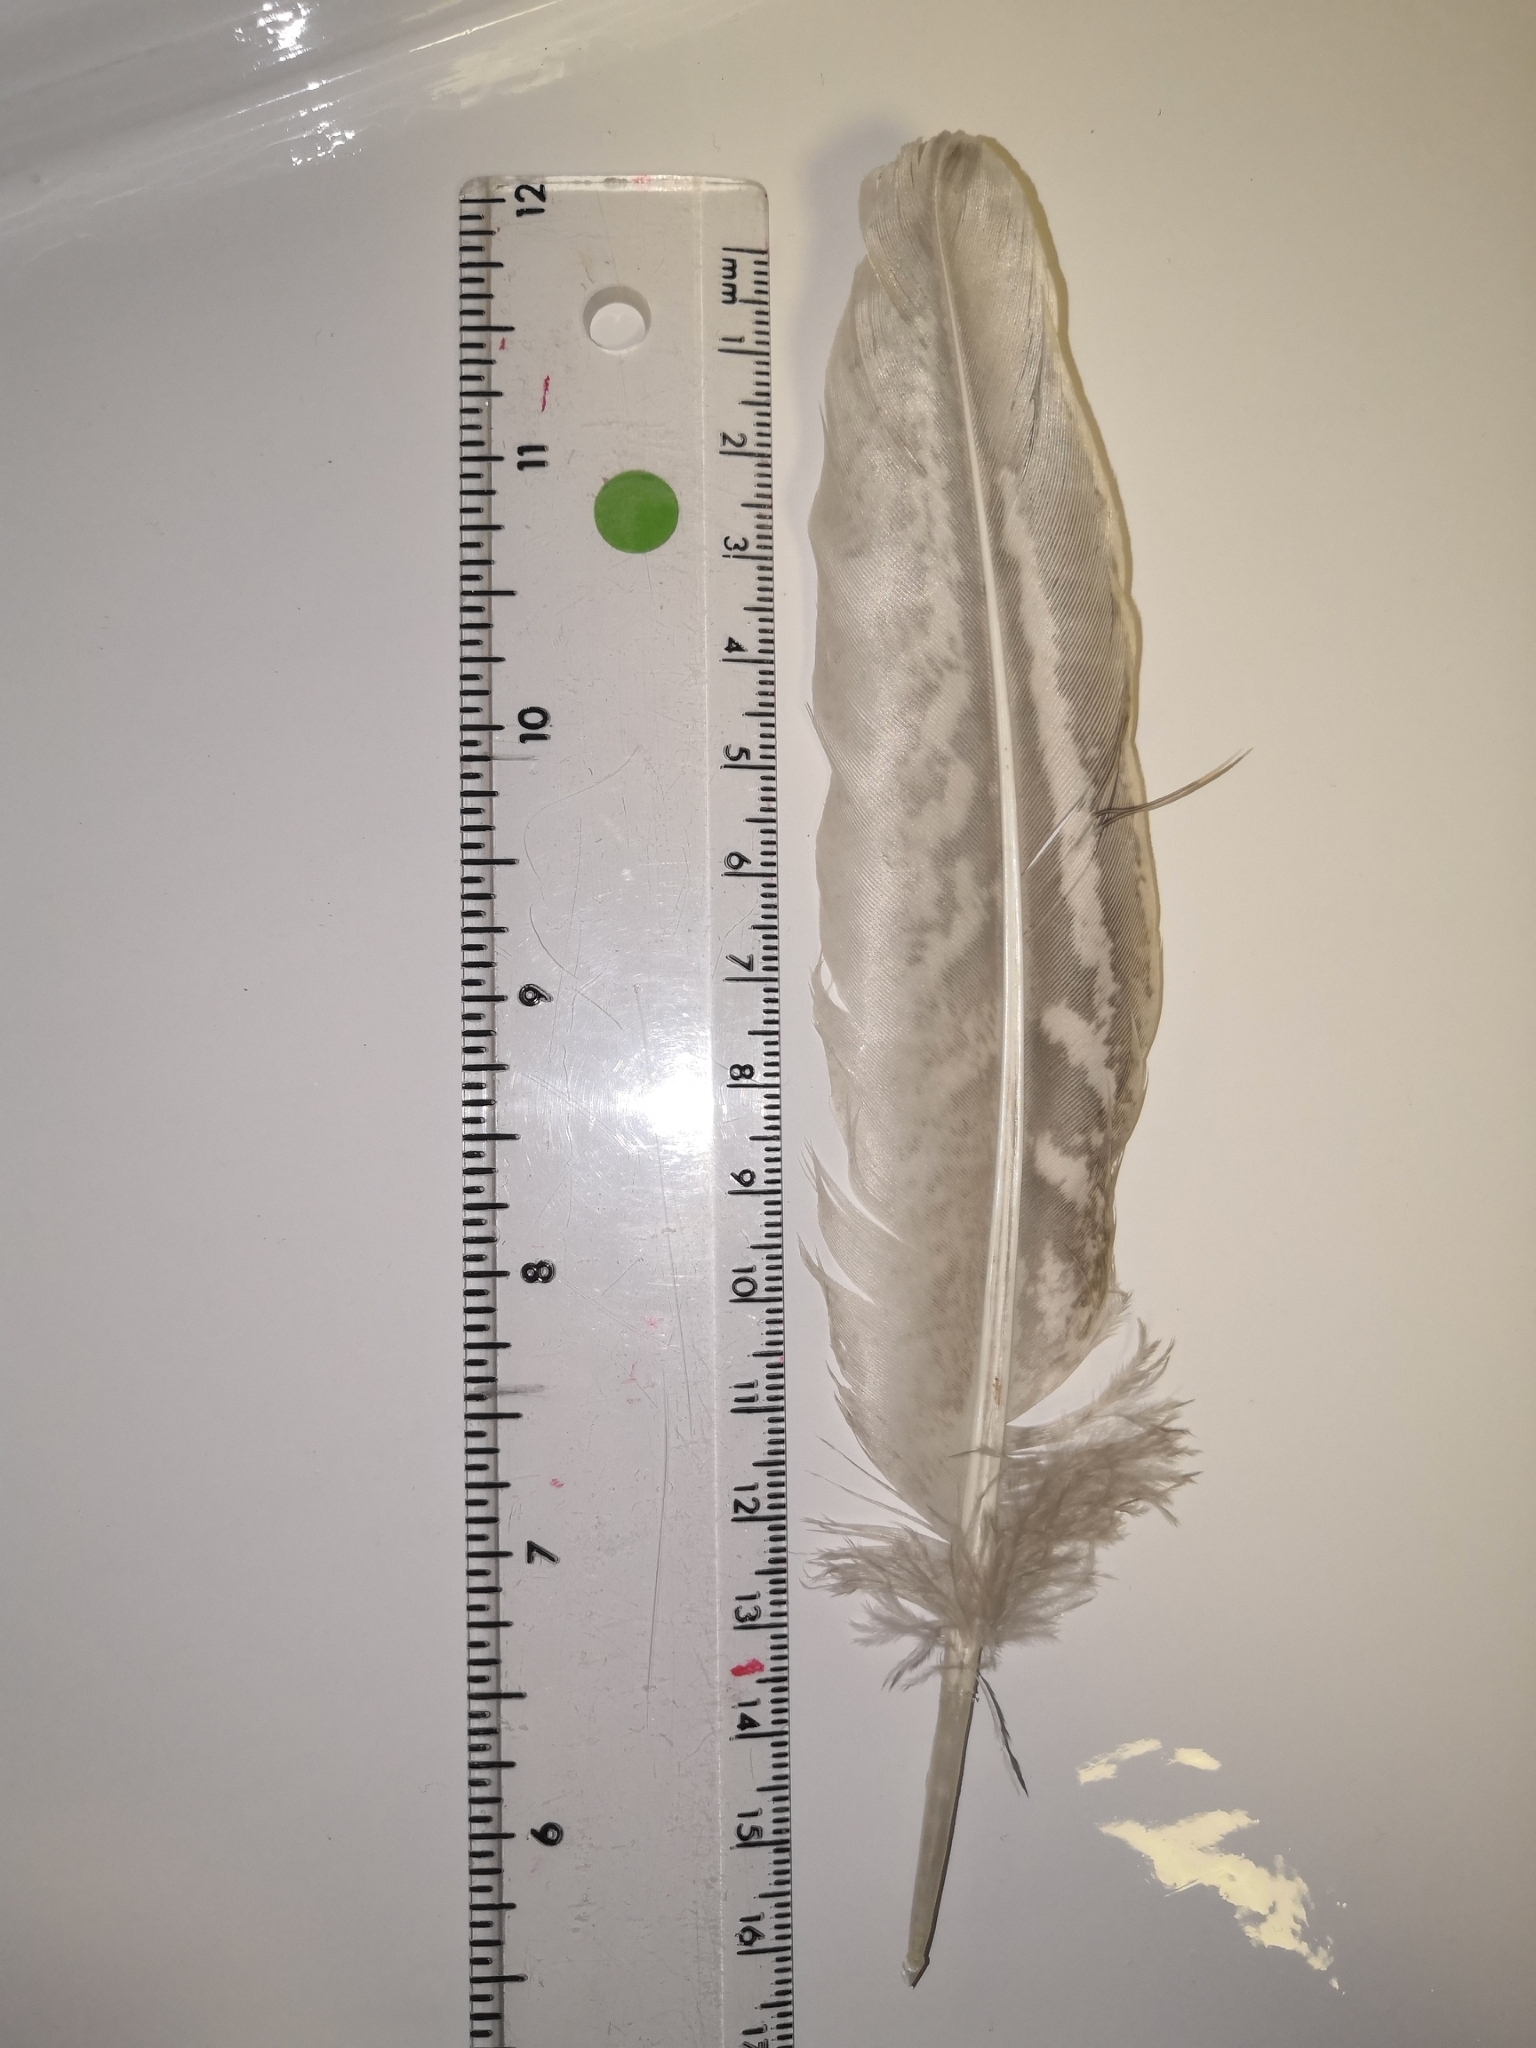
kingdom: Animalia
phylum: Chordata
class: Aves
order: Galliformes
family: Phasianidae
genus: Phasianus
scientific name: Phasianus colchicus
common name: Common pheasant
